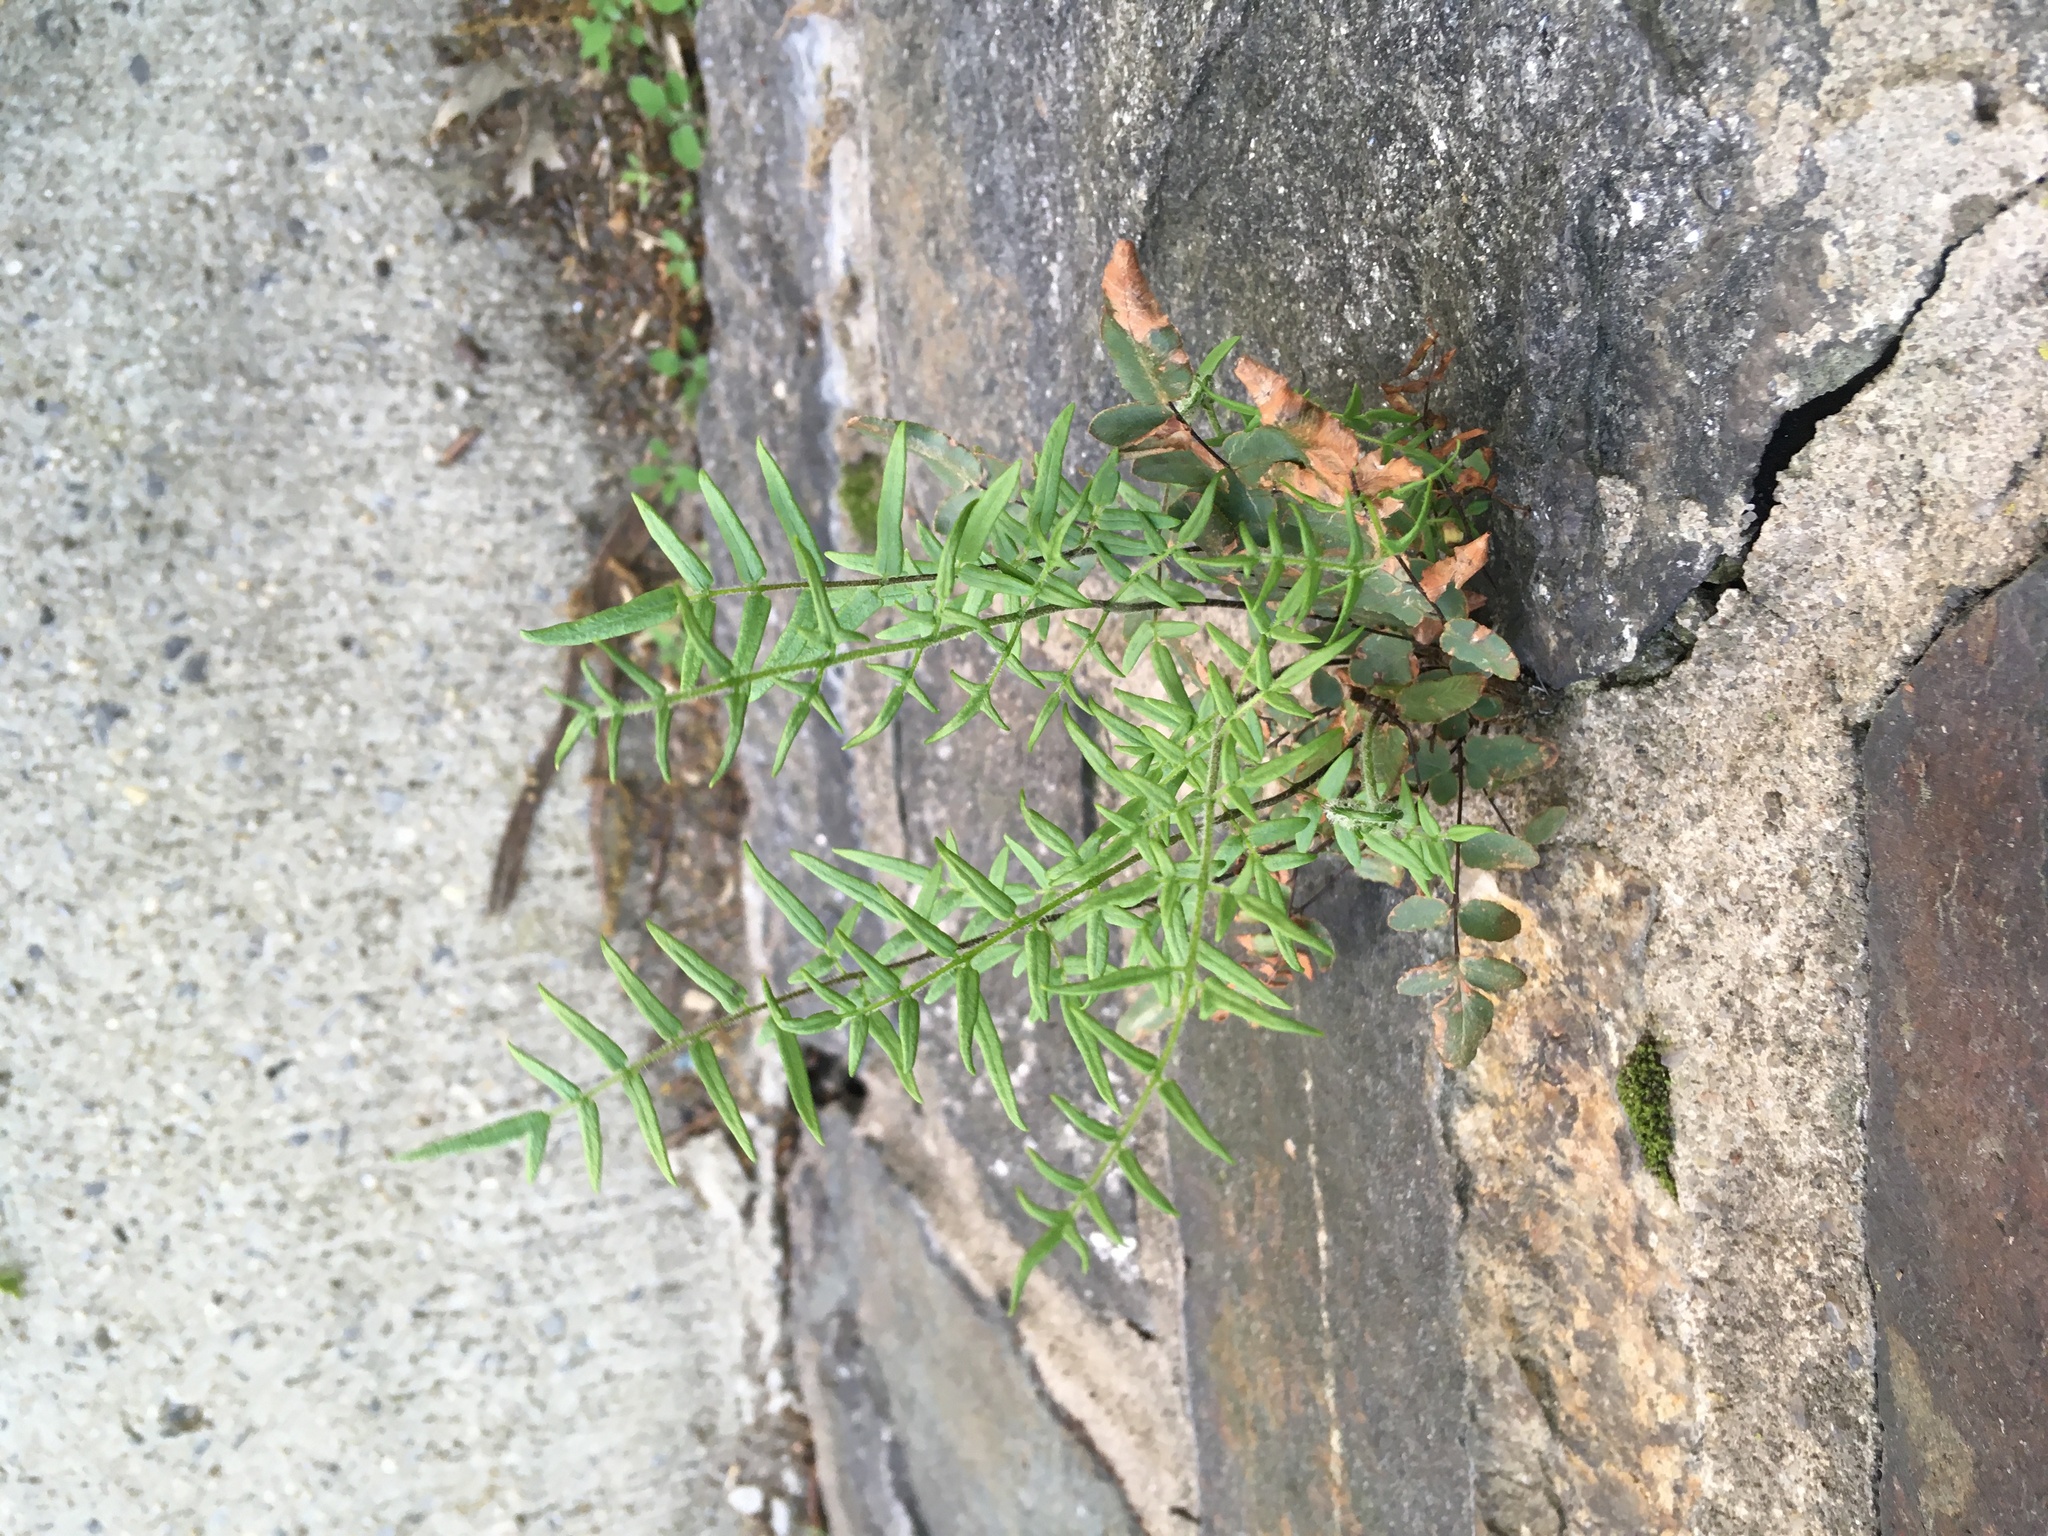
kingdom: Plantae
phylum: Tracheophyta
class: Polypodiopsida
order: Polypodiales
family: Pteridaceae
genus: Pellaea
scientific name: Pellaea atropurpurea
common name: Hairy cliffbrake
